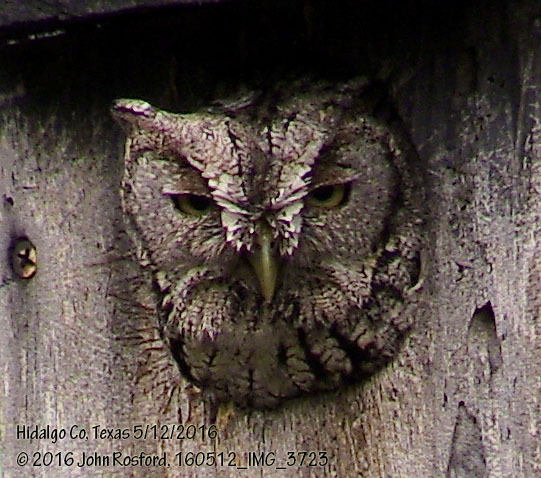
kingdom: Animalia
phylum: Chordata
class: Aves
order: Strigiformes
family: Strigidae
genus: Megascops
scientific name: Megascops asio
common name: Eastern screech-owl
